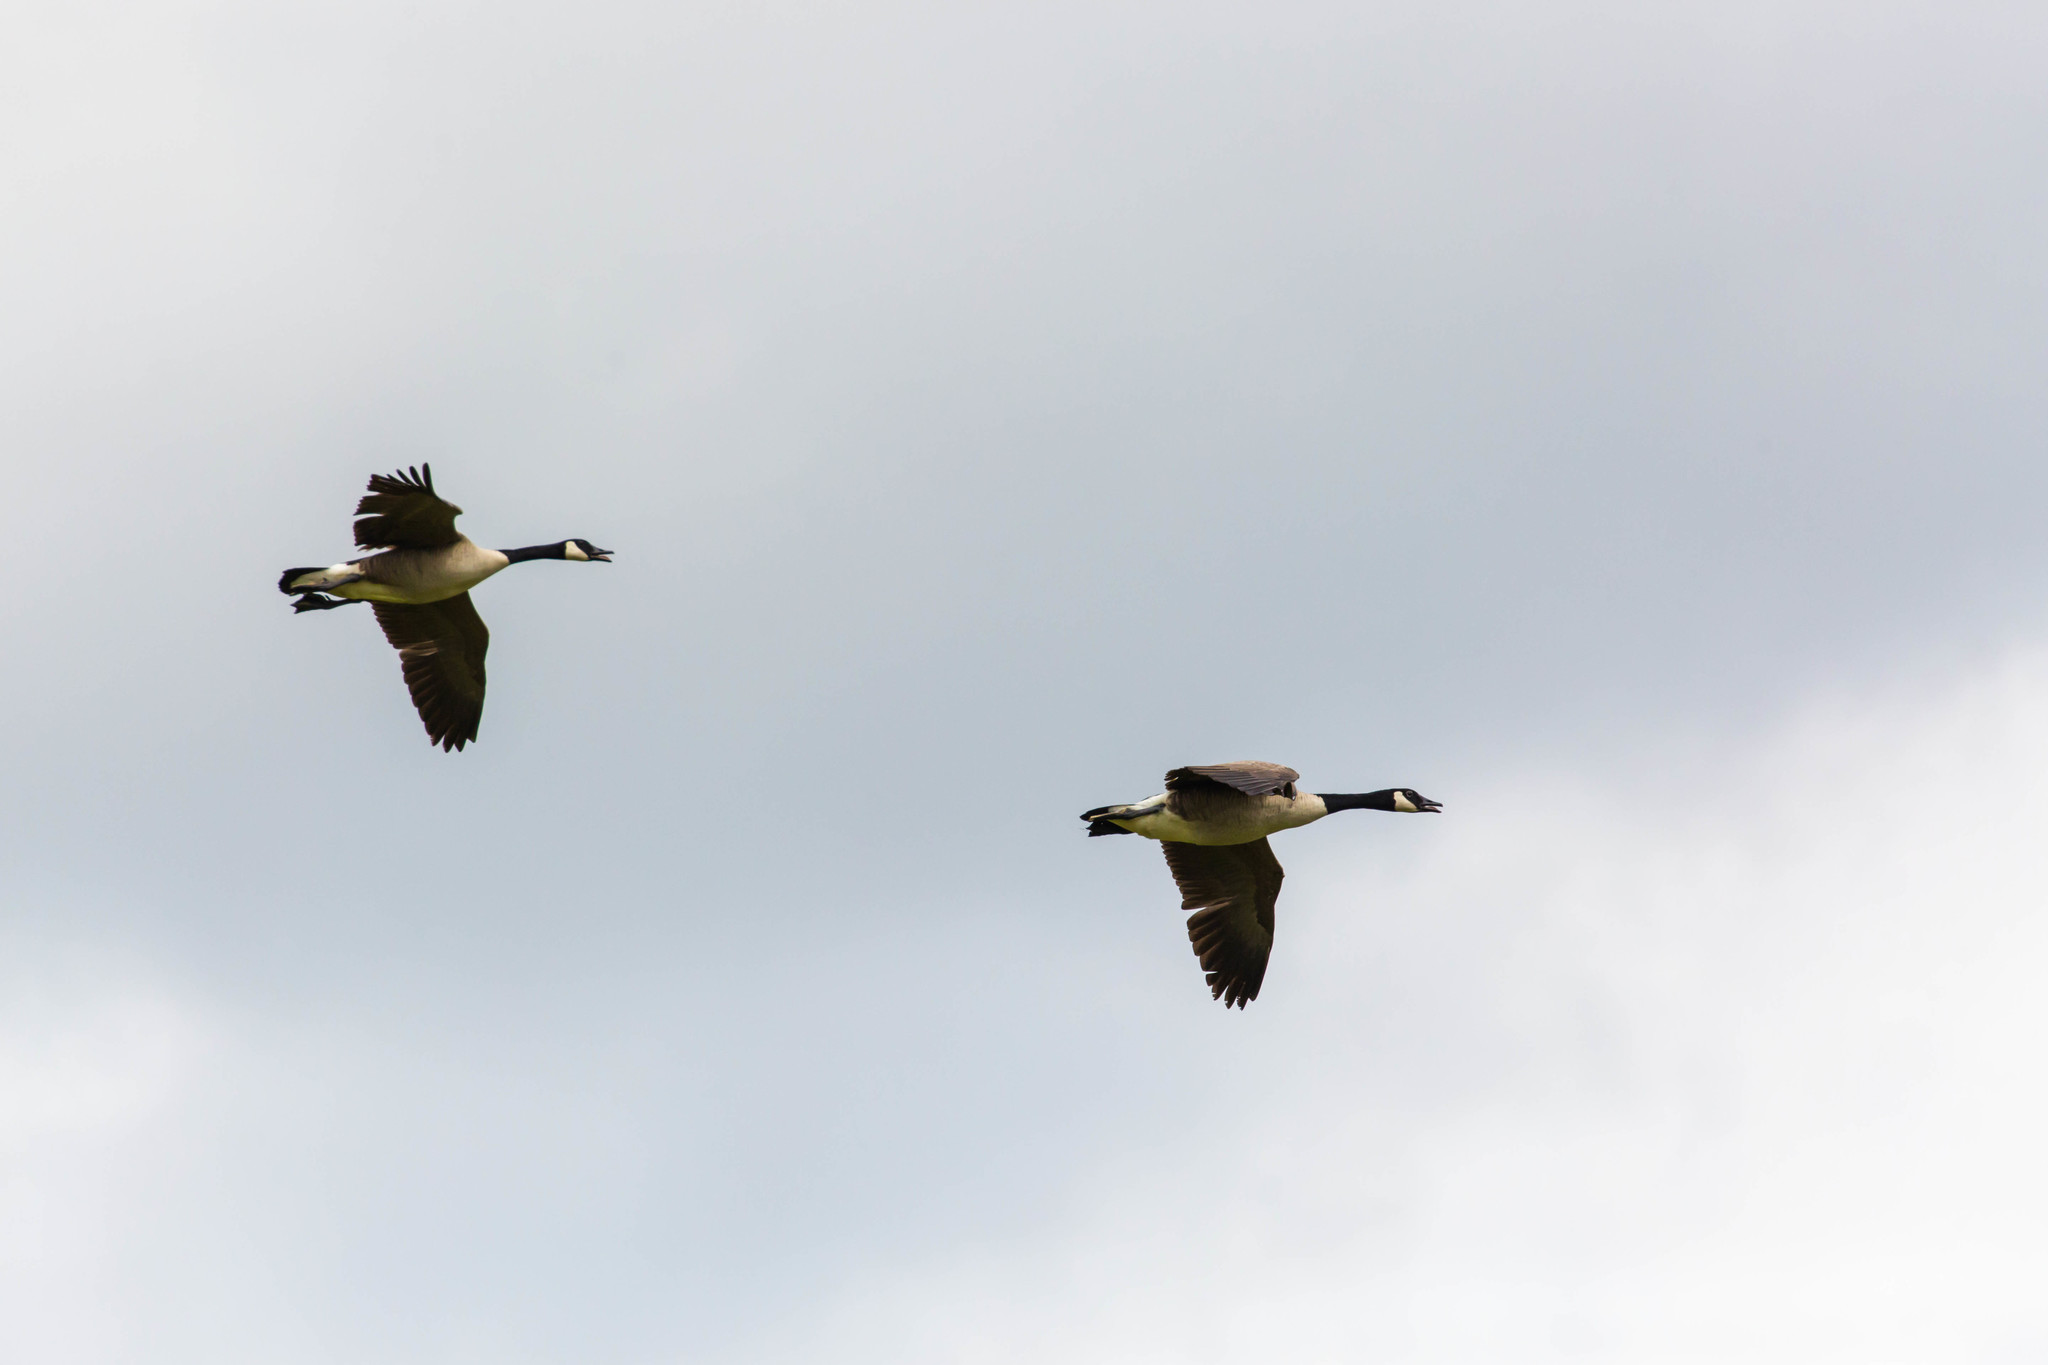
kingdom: Animalia
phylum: Chordata
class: Aves
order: Anseriformes
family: Anatidae
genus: Branta
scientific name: Branta canadensis
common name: Canada goose
